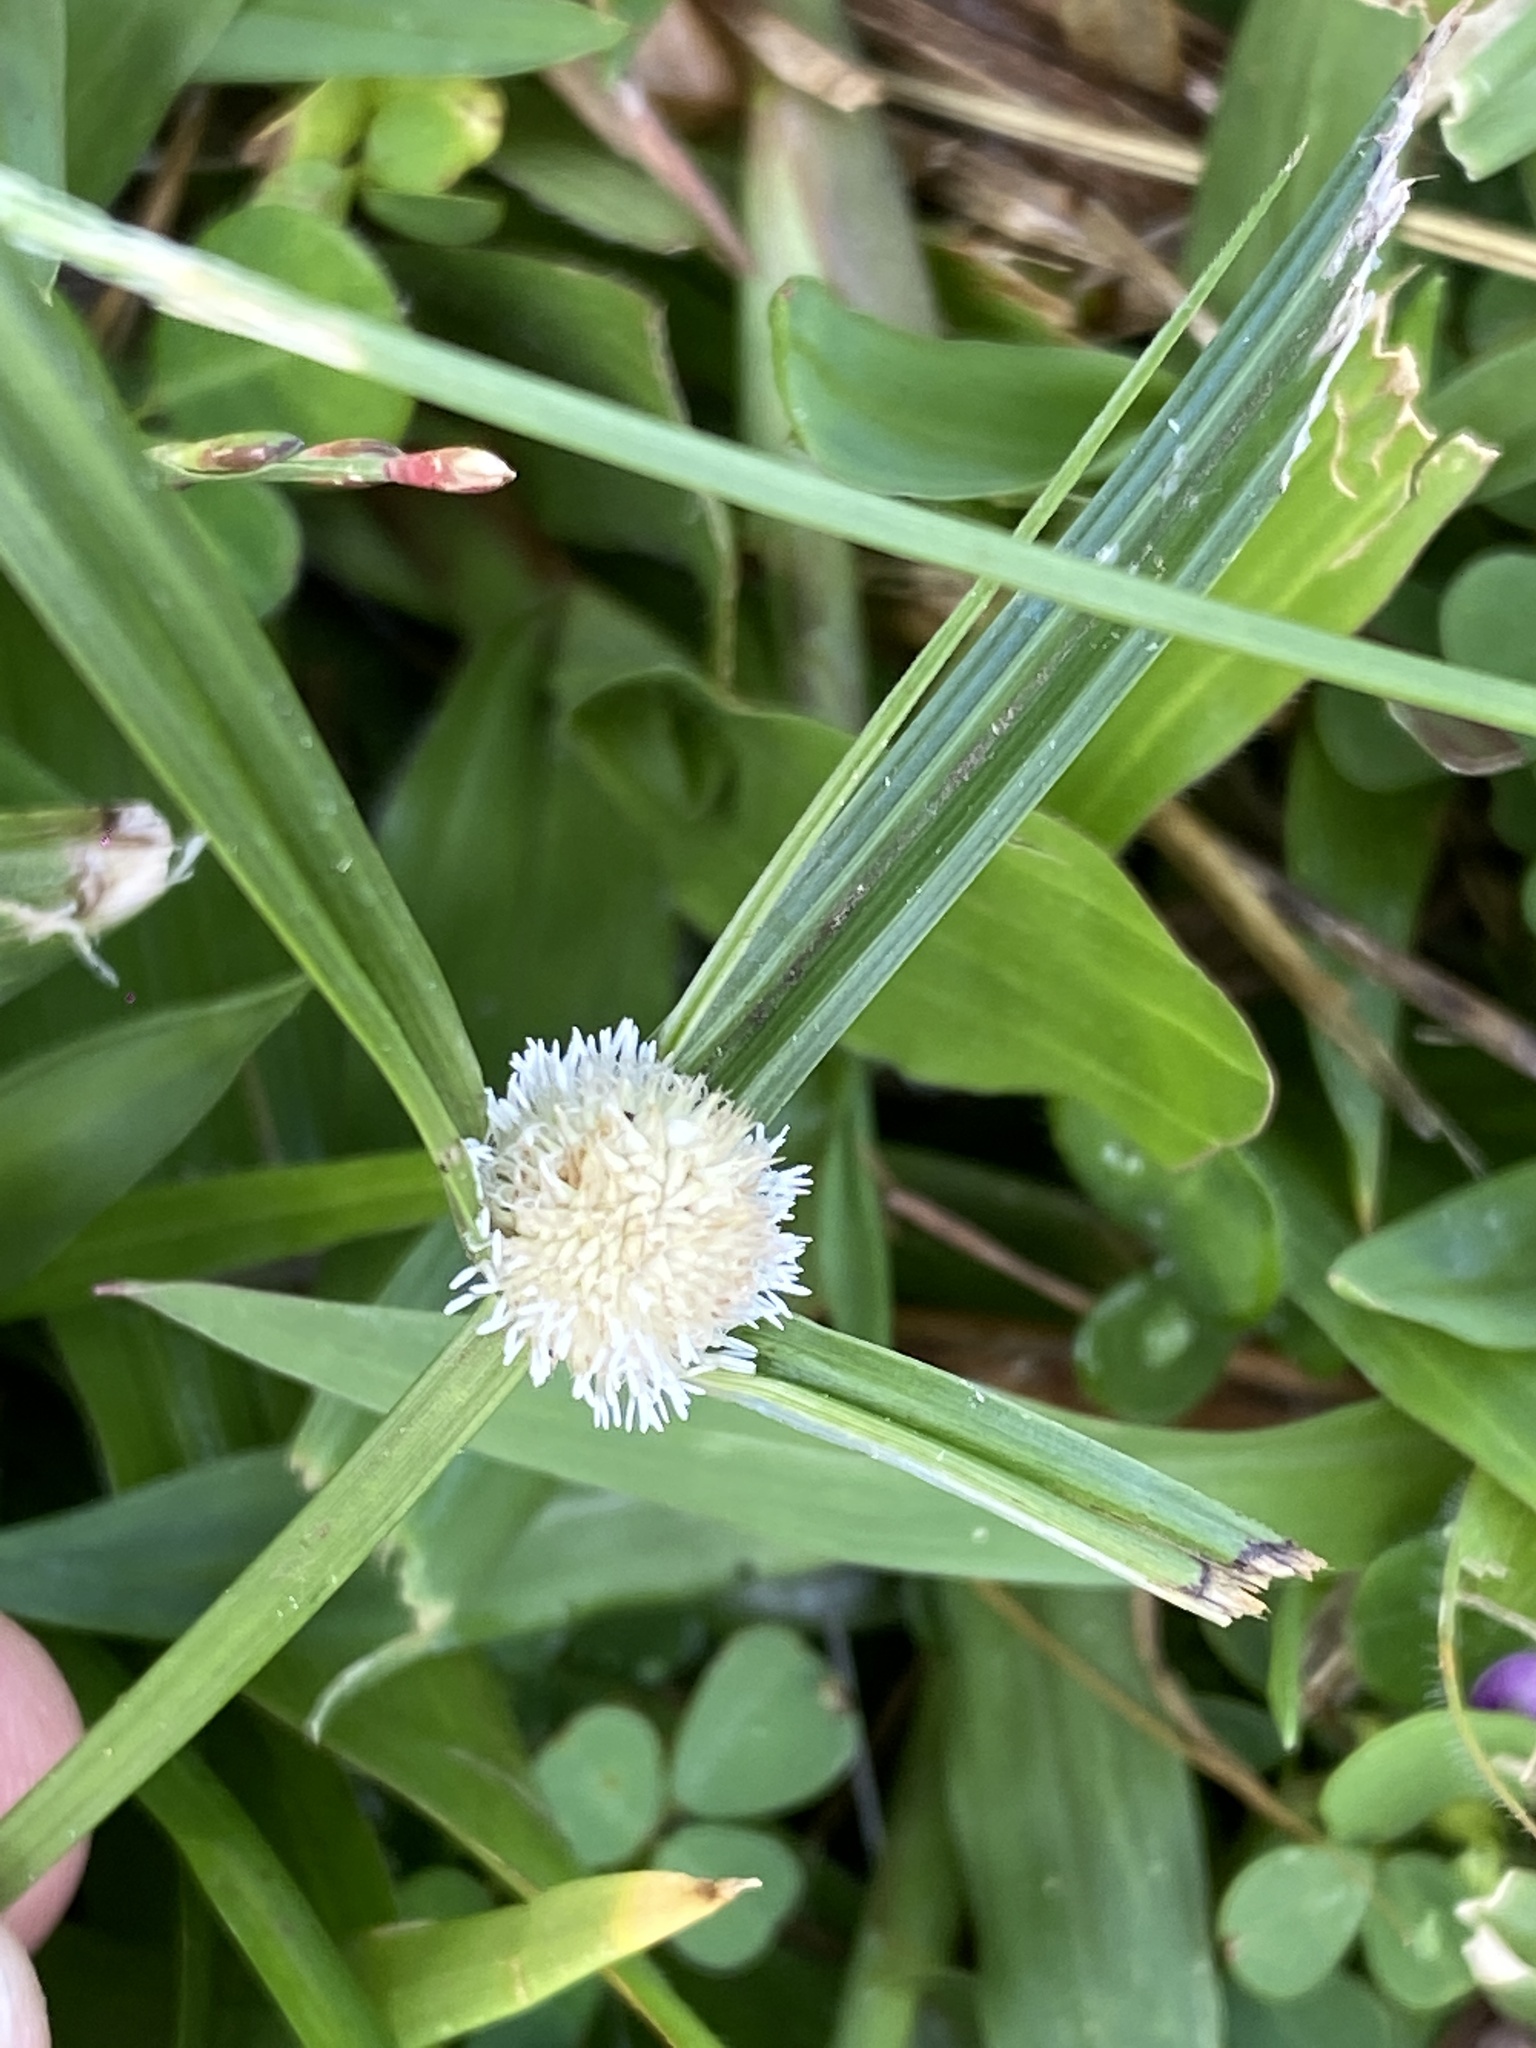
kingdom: Plantae
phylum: Tracheophyta
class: Liliopsida
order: Poales
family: Cyperaceae
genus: Cyperus
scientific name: Cyperus mindorensis
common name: Flatsedge
